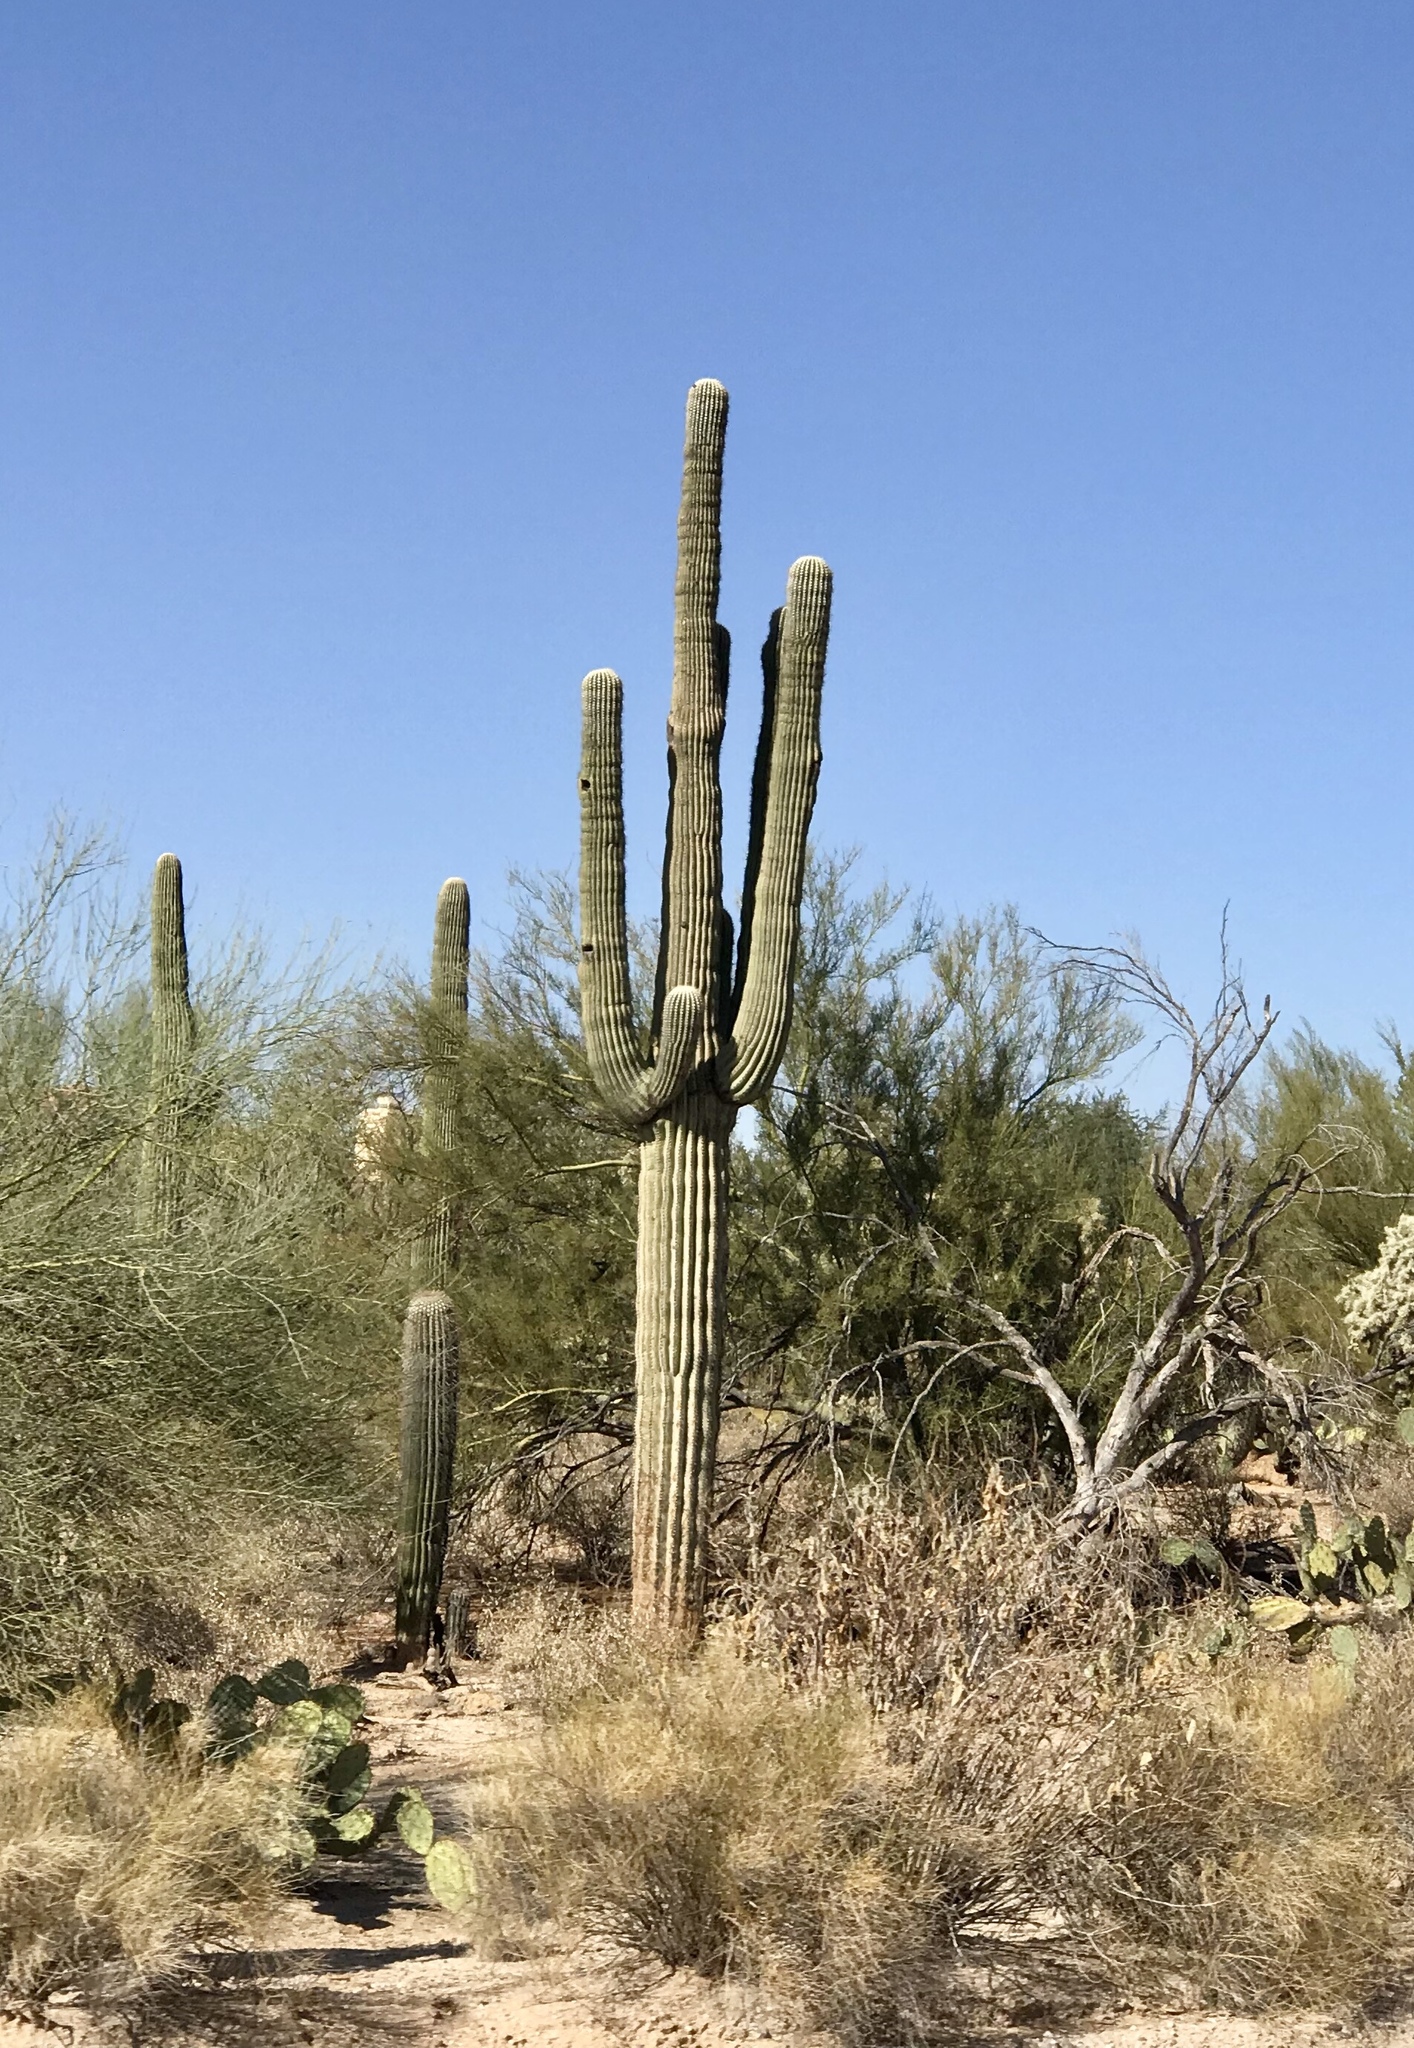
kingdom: Plantae
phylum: Tracheophyta
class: Magnoliopsida
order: Caryophyllales
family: Cactaceae
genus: Carnegiea
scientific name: Carnegiea gigantea
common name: Saguaro
